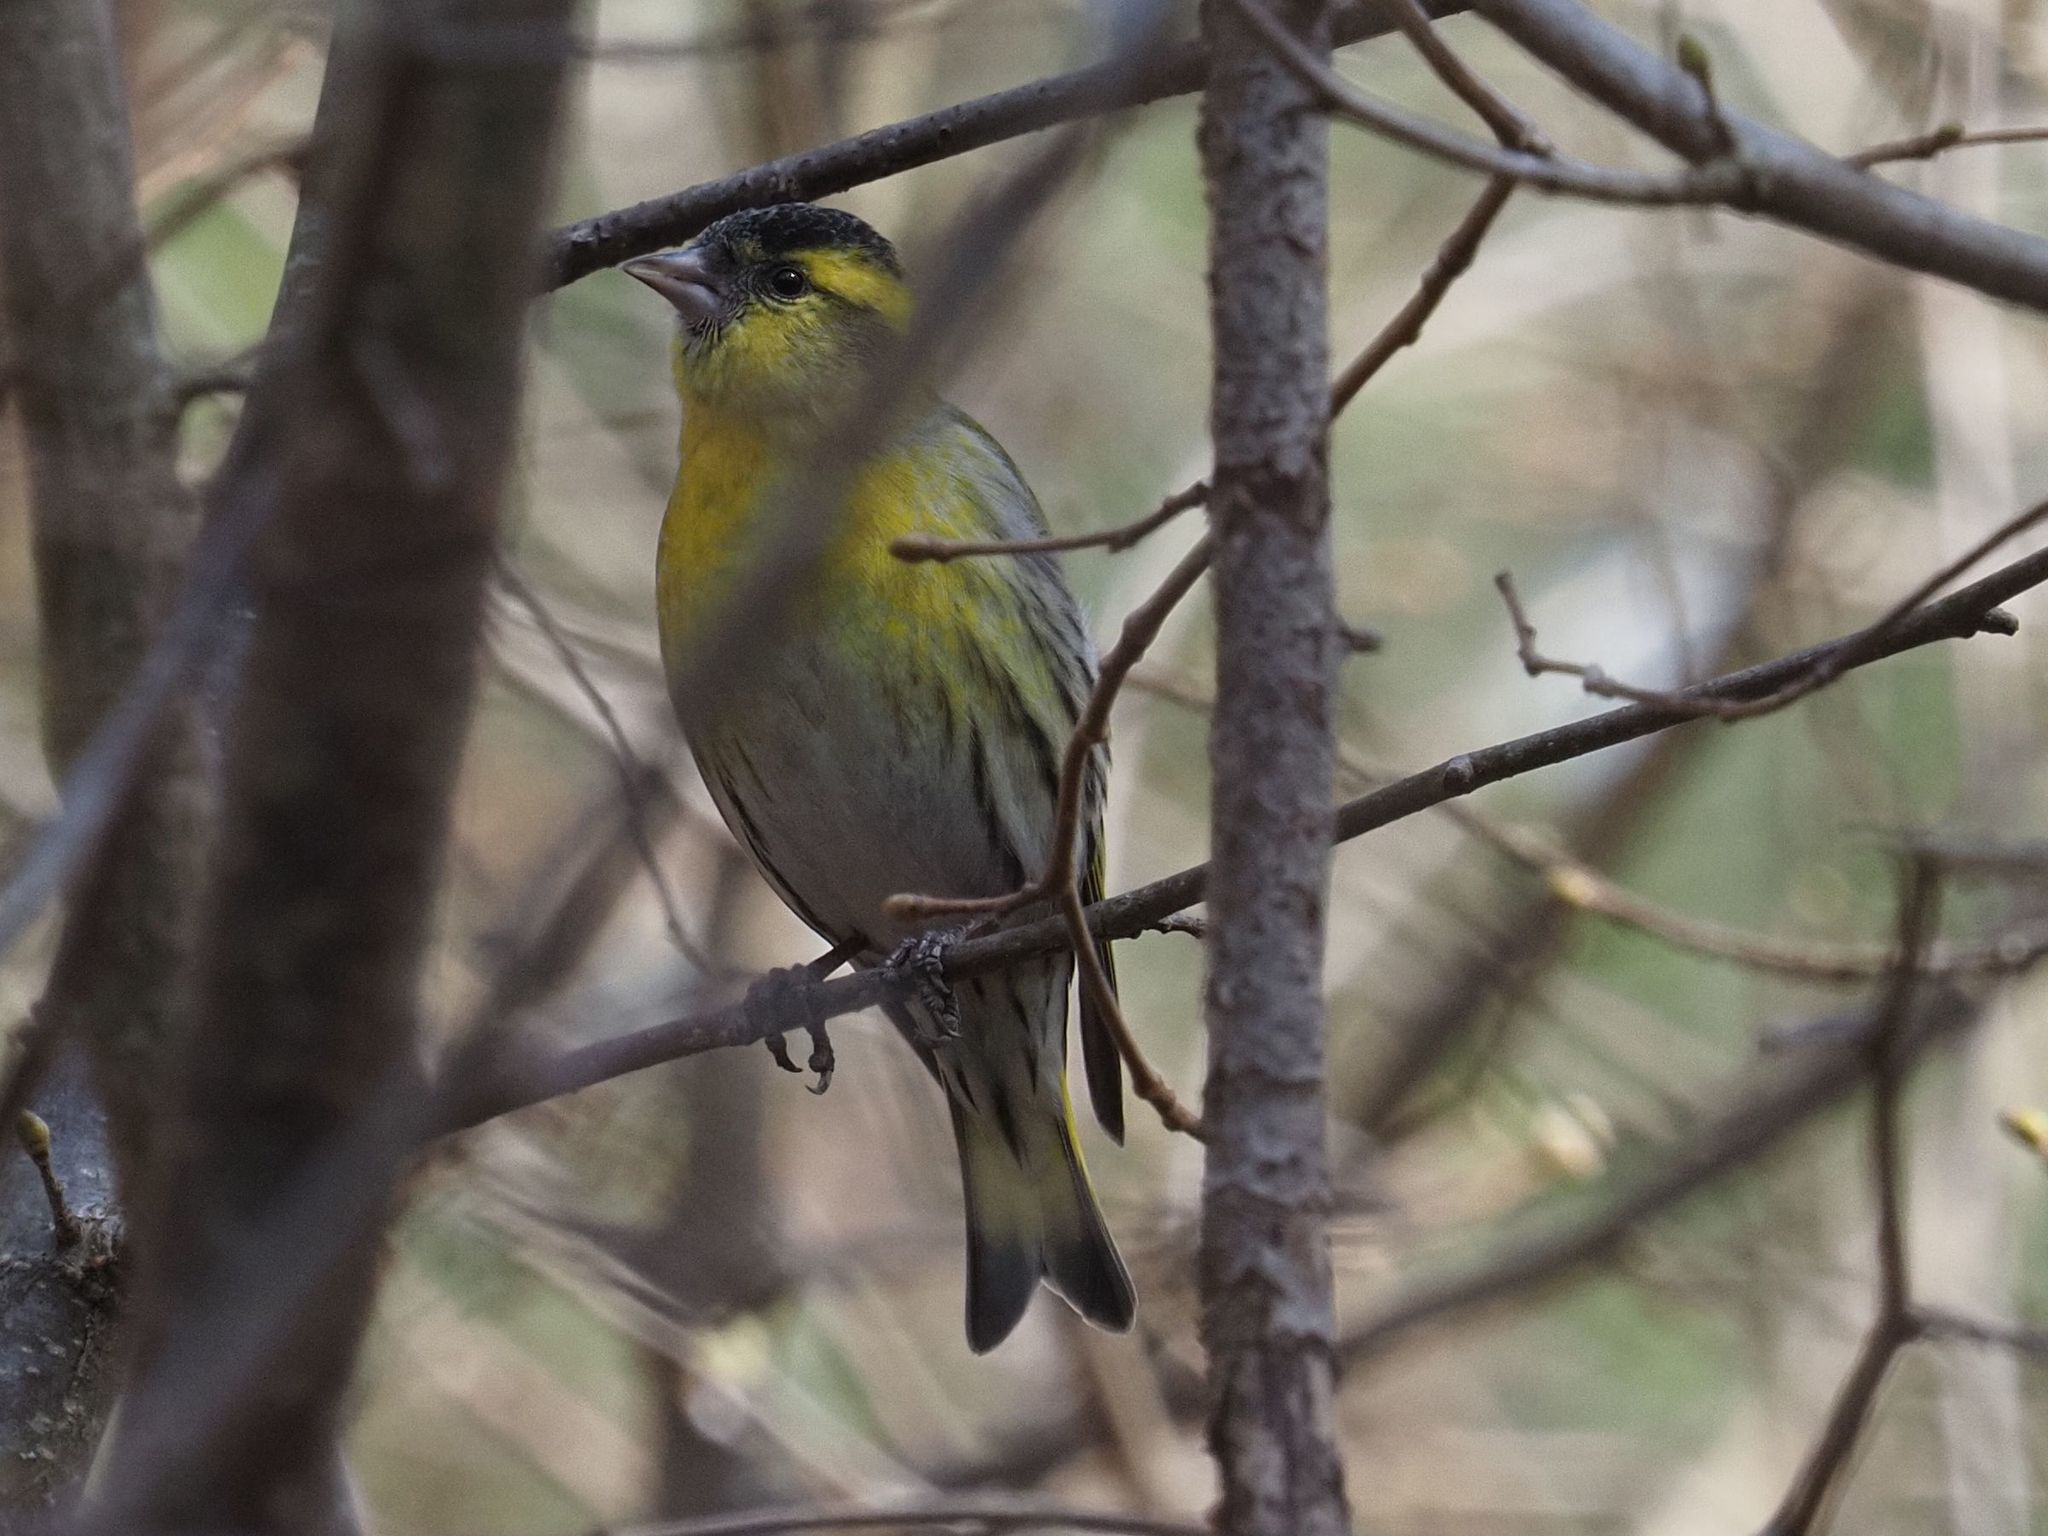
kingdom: Animalia
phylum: Chordata
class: Aves
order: Passeriformes
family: Fringillidae
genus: Spinus
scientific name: Spinus spinus
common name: Eurasian siskin
